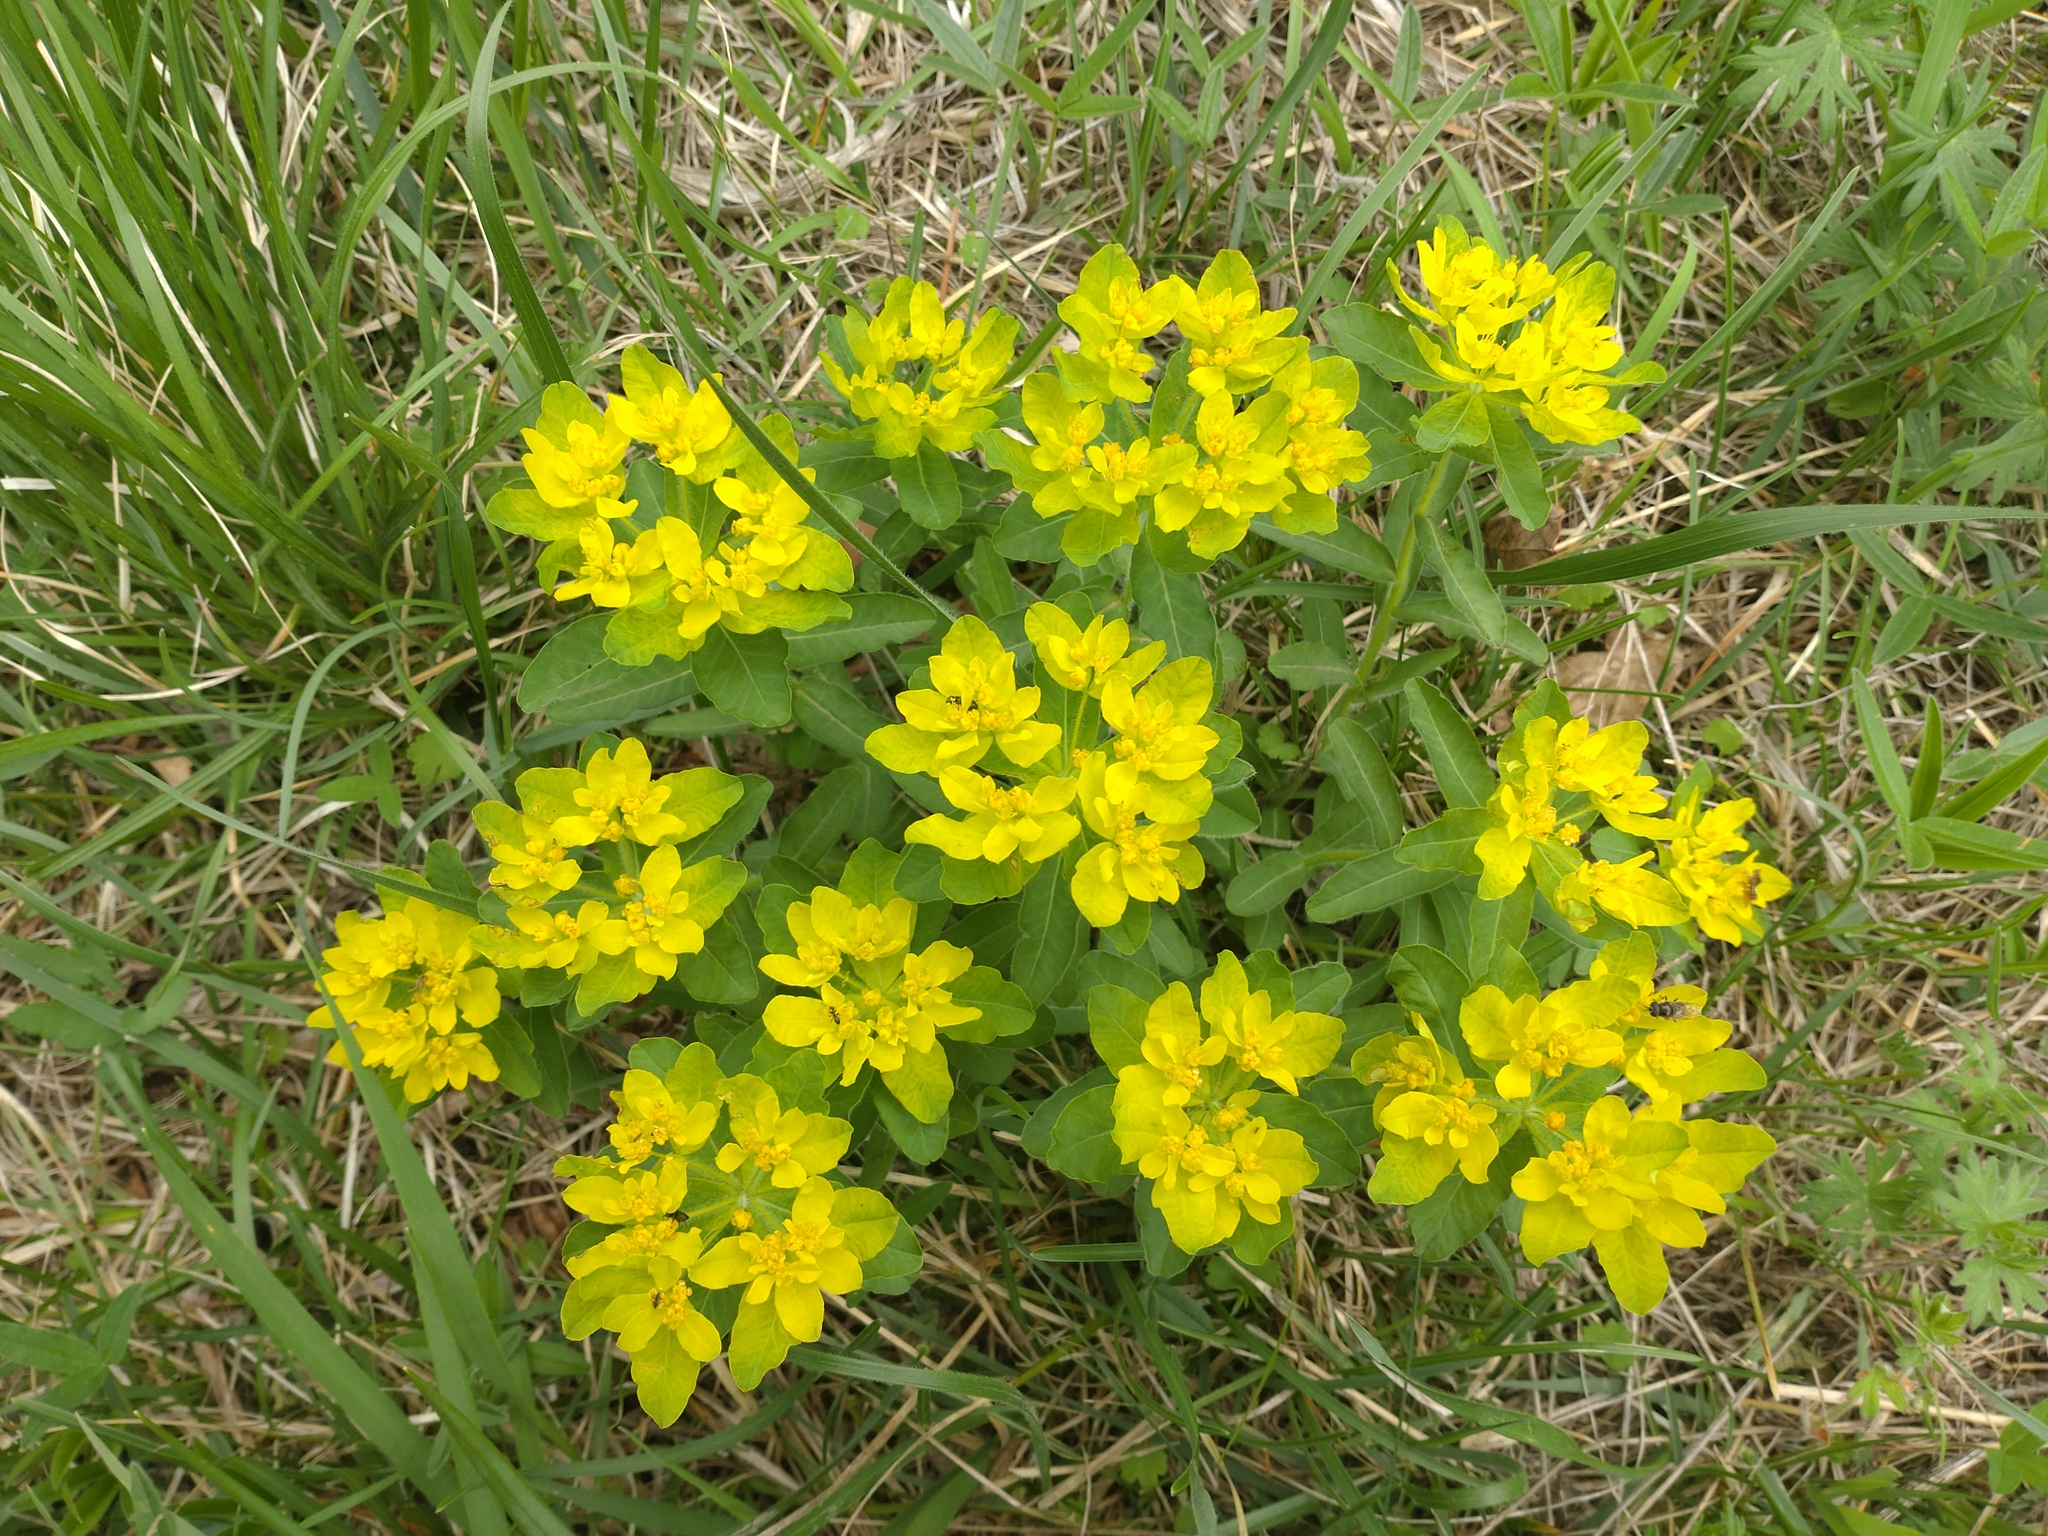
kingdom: Plantae
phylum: Tracheophyta
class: Magnoliopsida
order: Malpighiales
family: Euphorbiaceae
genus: Euphorbia
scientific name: Euphorbia epithymoides
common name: Cushion spurge
